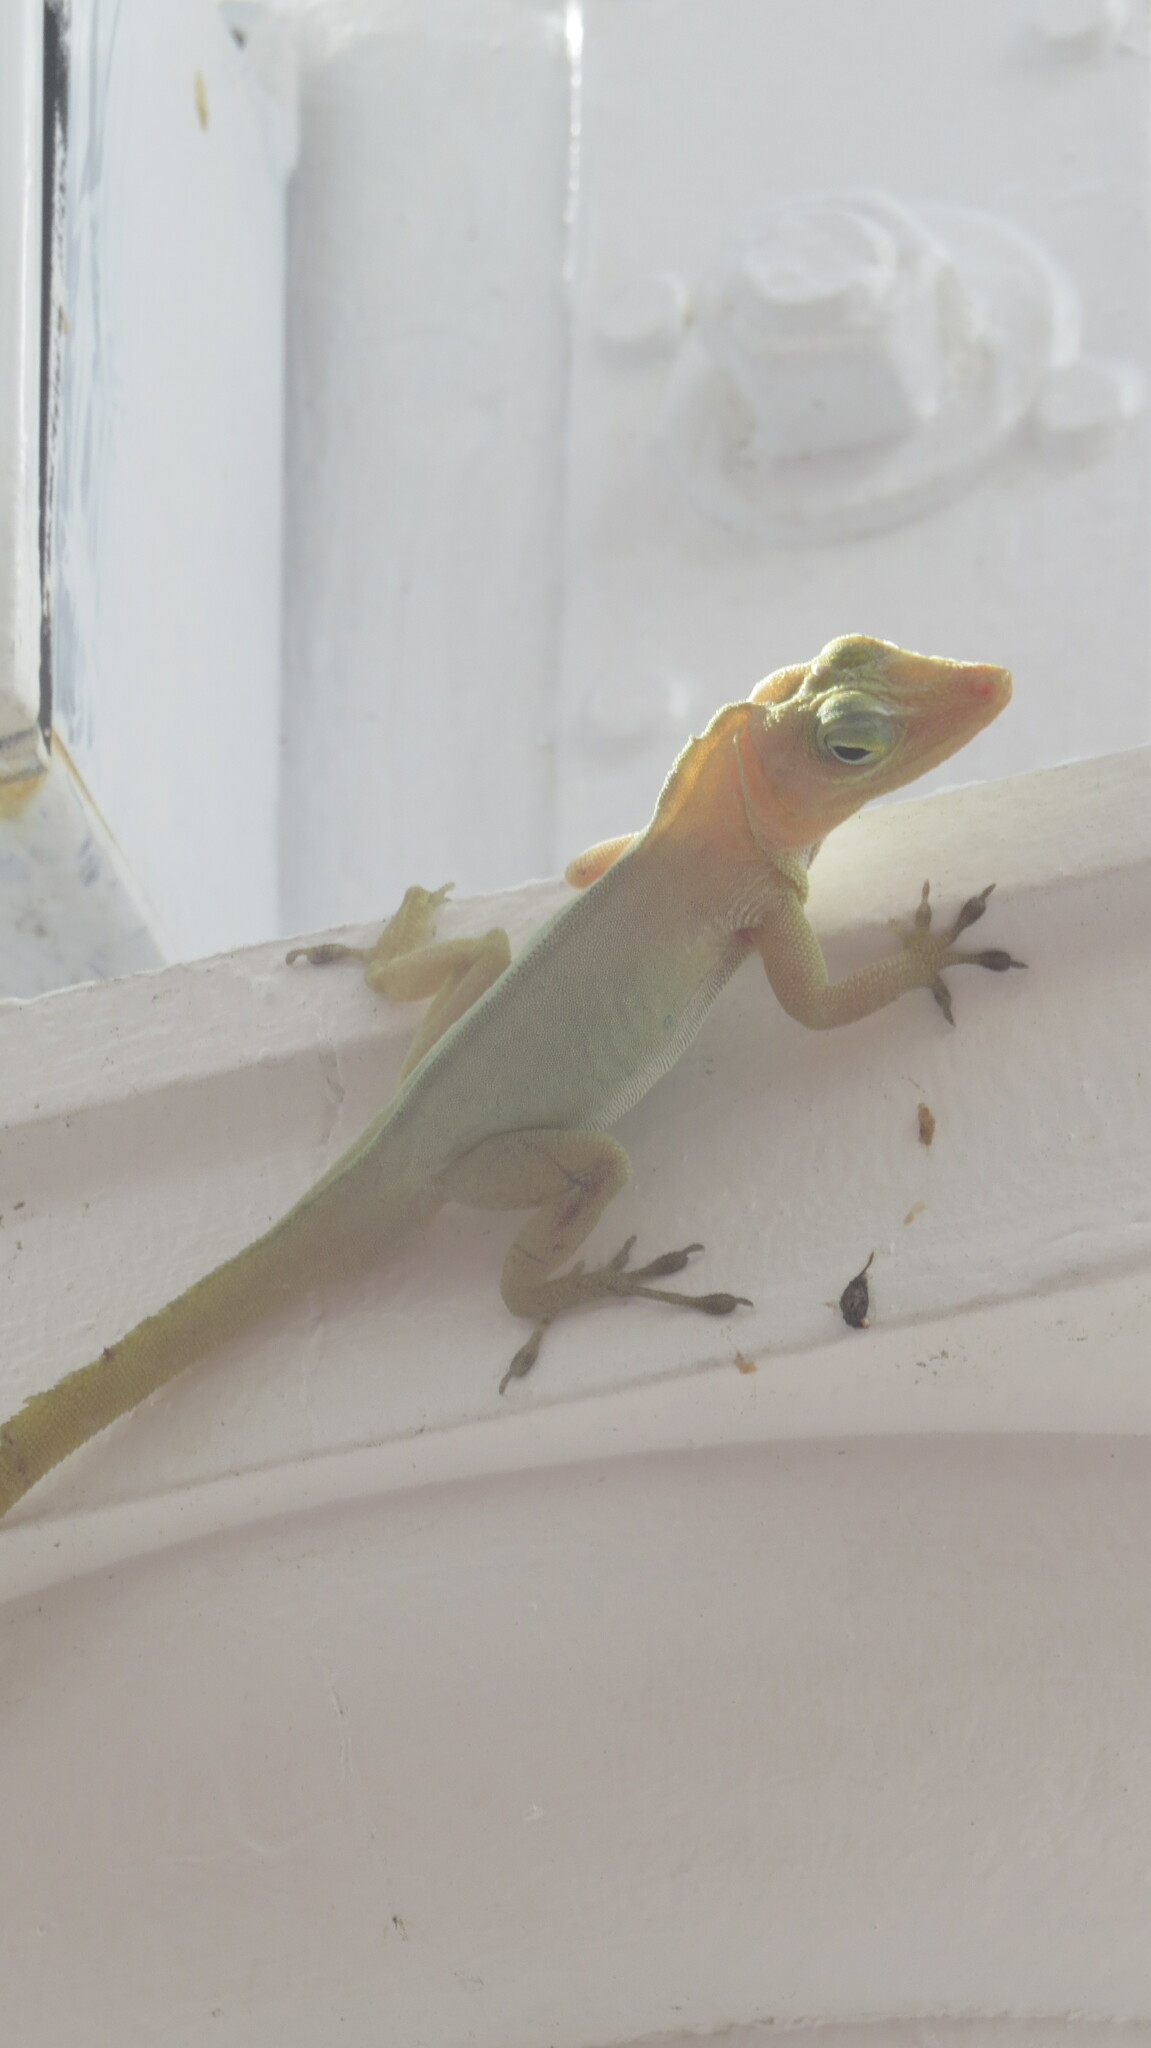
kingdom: Animalia
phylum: Chordata
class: Squamata
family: Dactyloidae
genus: Anolis
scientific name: Anolis acutus
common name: Saint croix's anole
